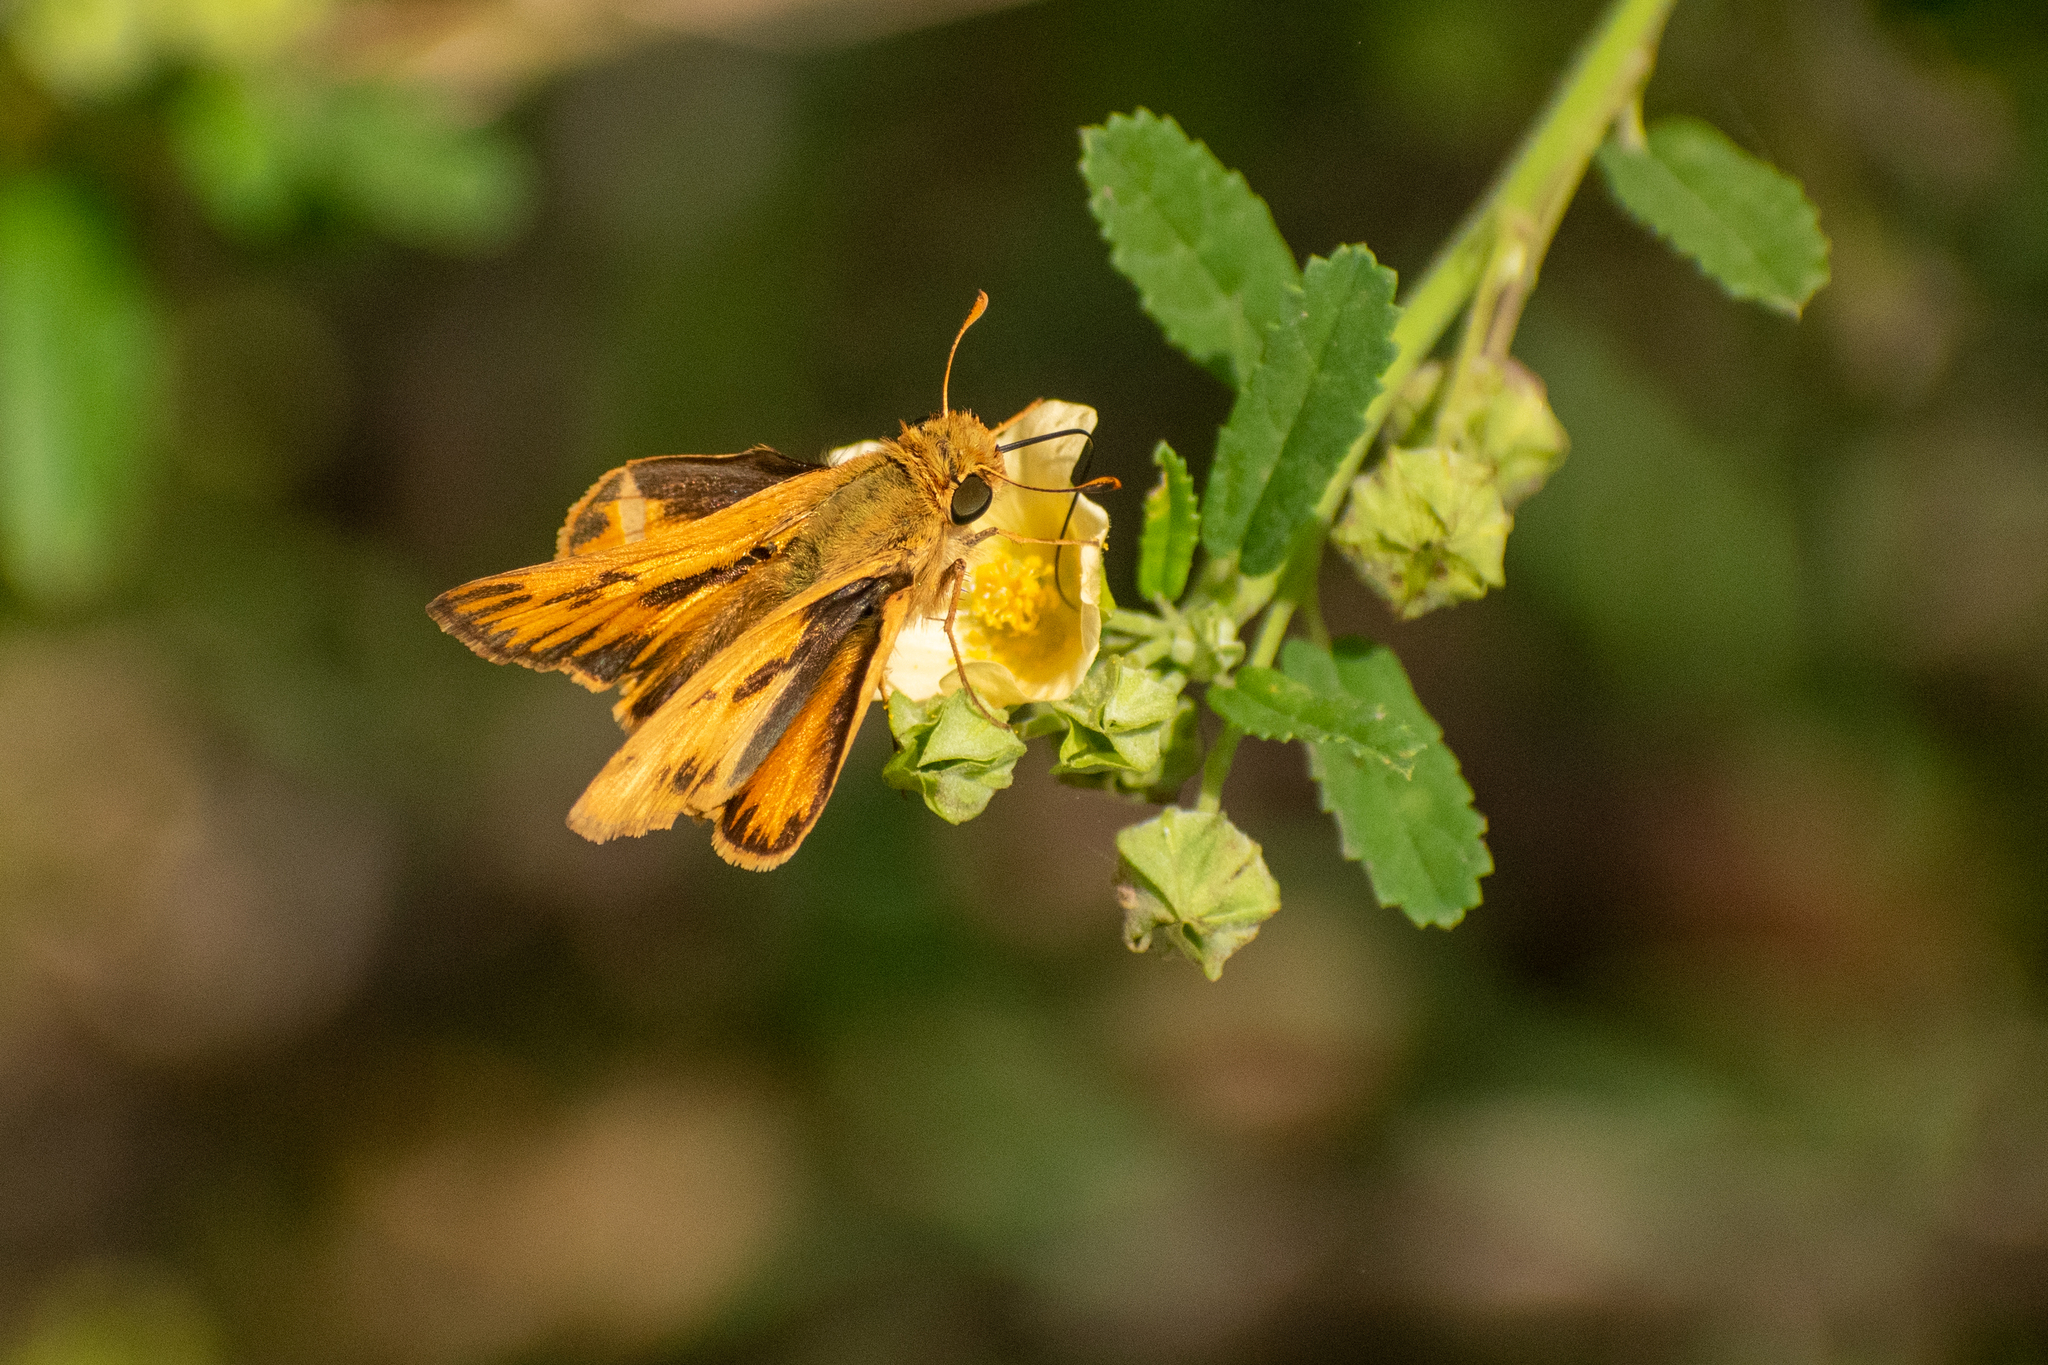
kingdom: Animalia
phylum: Arthropoda
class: Insecta
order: Lepidoptera
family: Hesperiidae
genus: Hylephila
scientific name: Hylephila phyleus
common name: Fiery skipper
